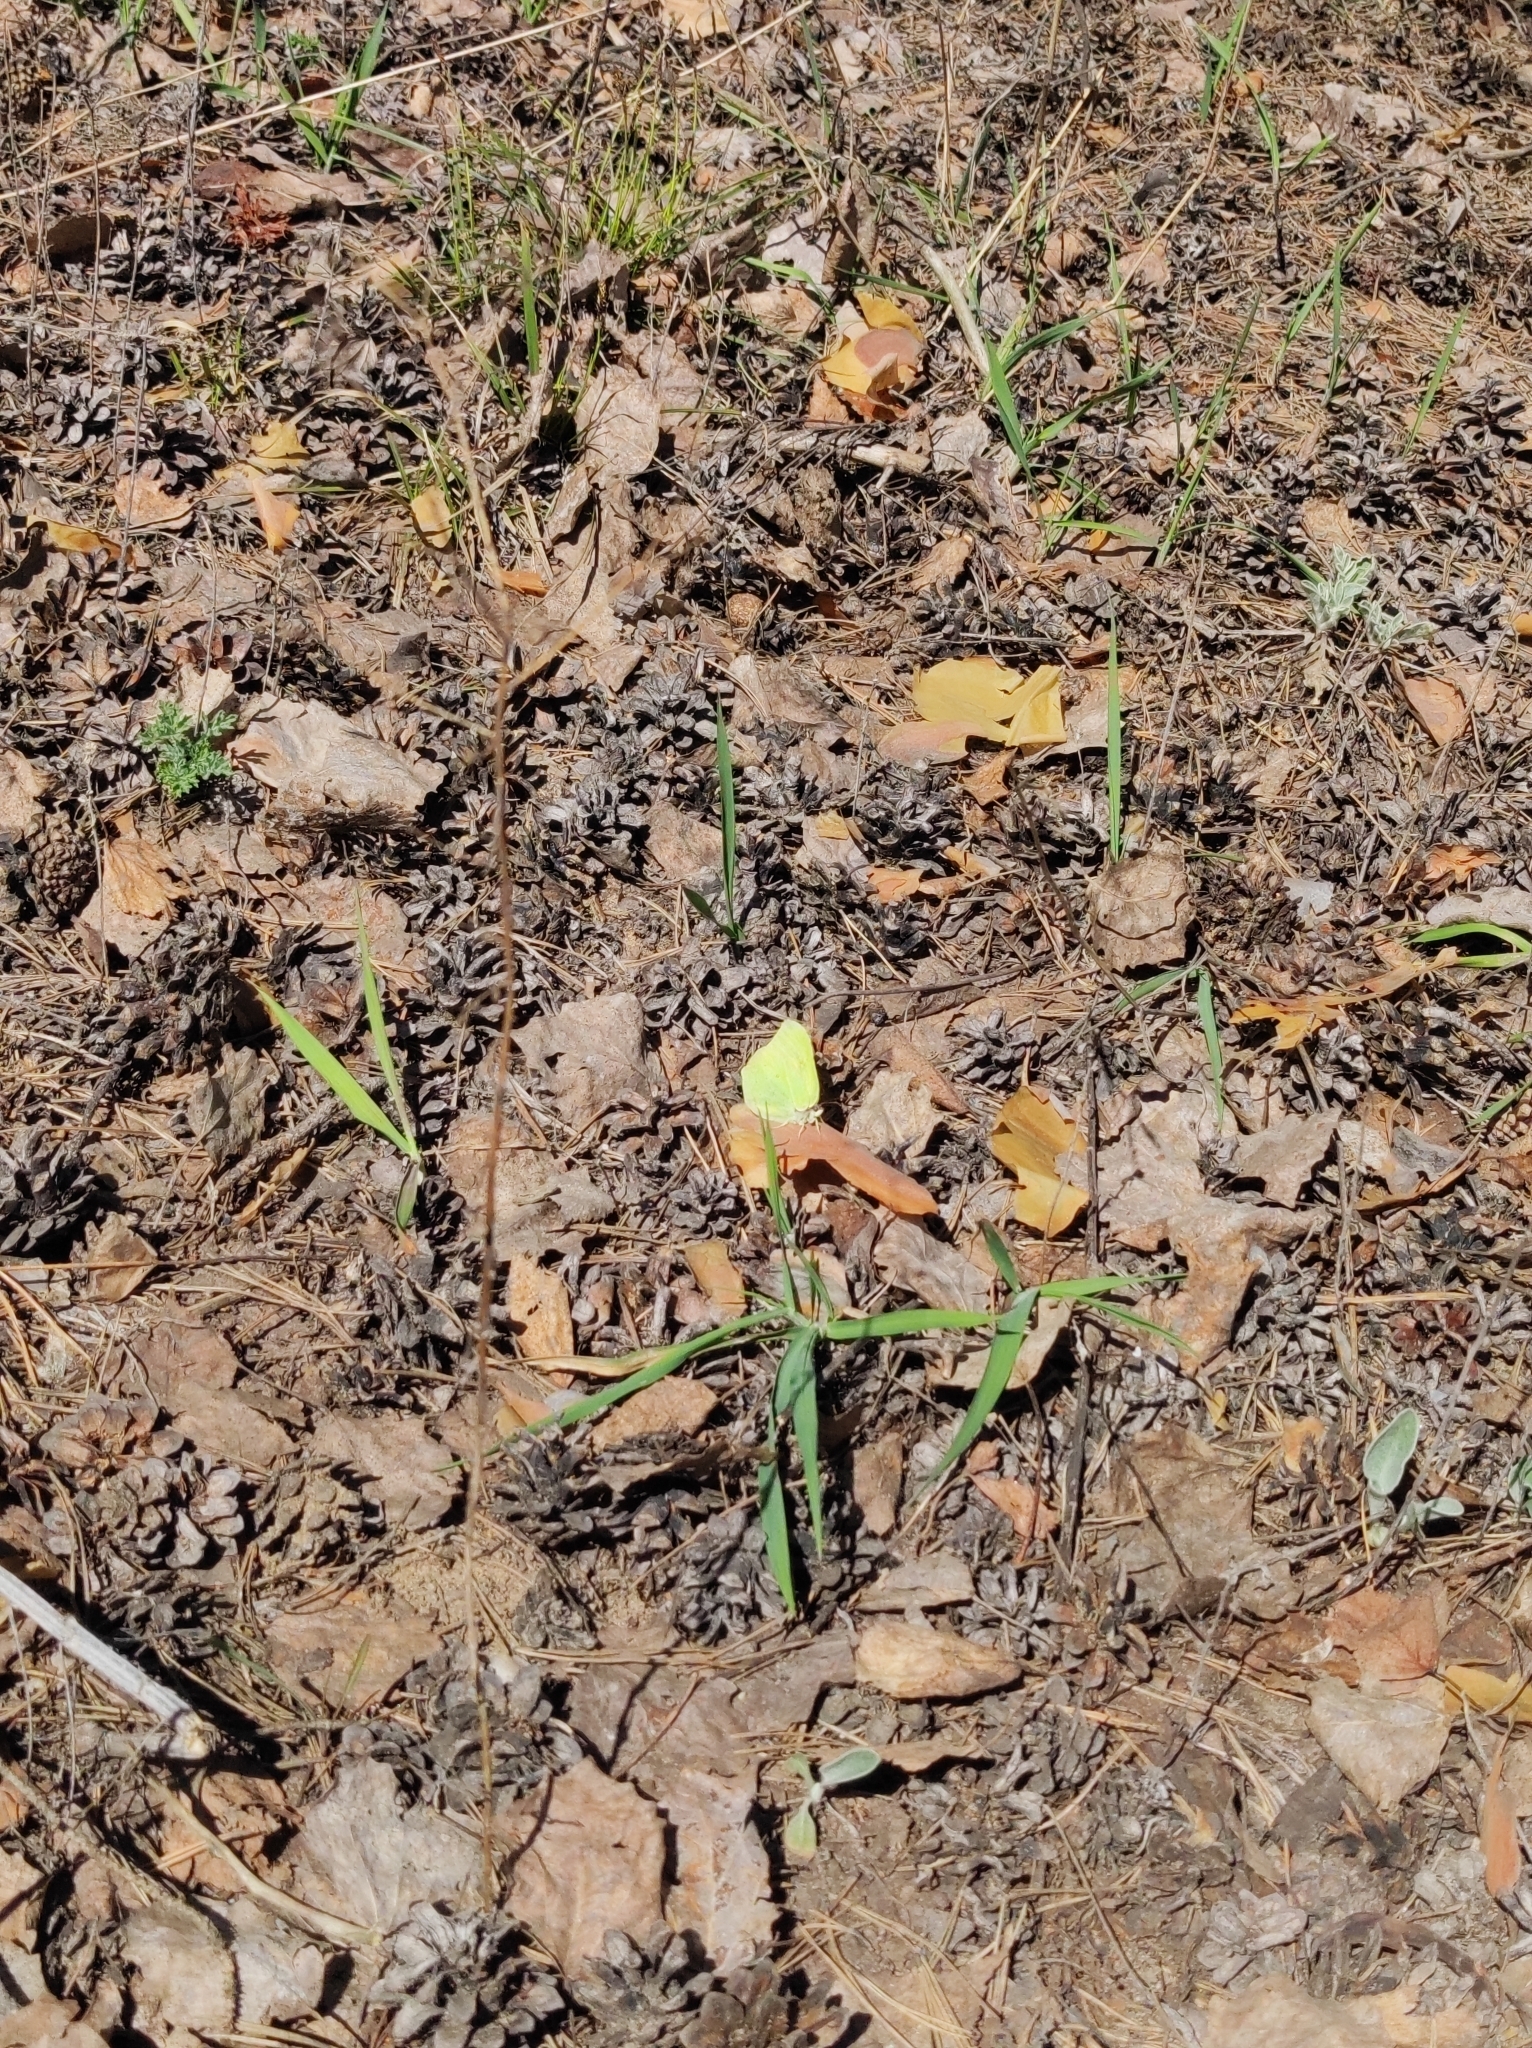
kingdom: Animalia
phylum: Arthropoda
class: Insecta
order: Lepidoptera
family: Pieridae
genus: Gonepteryx
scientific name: Gonepteryx rhamni
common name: Brimstone
